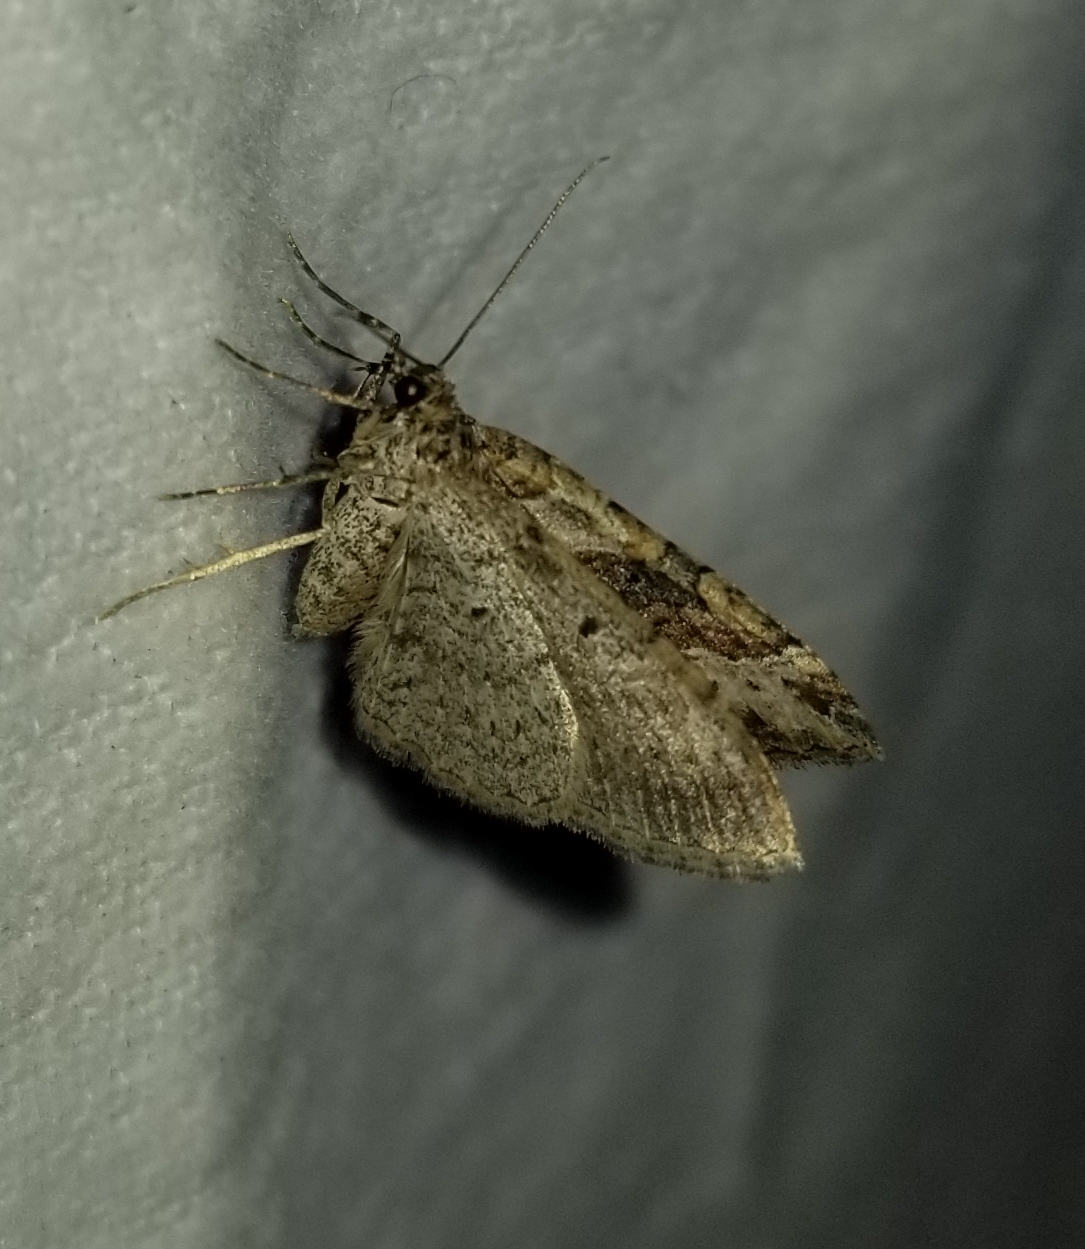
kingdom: Animalia
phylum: Arthropoda
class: Insecta
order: Lepidoptera
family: Geometridae
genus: Costaconvexa
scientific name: Costaconvexa centrostrigaria
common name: Bent-line carpet
